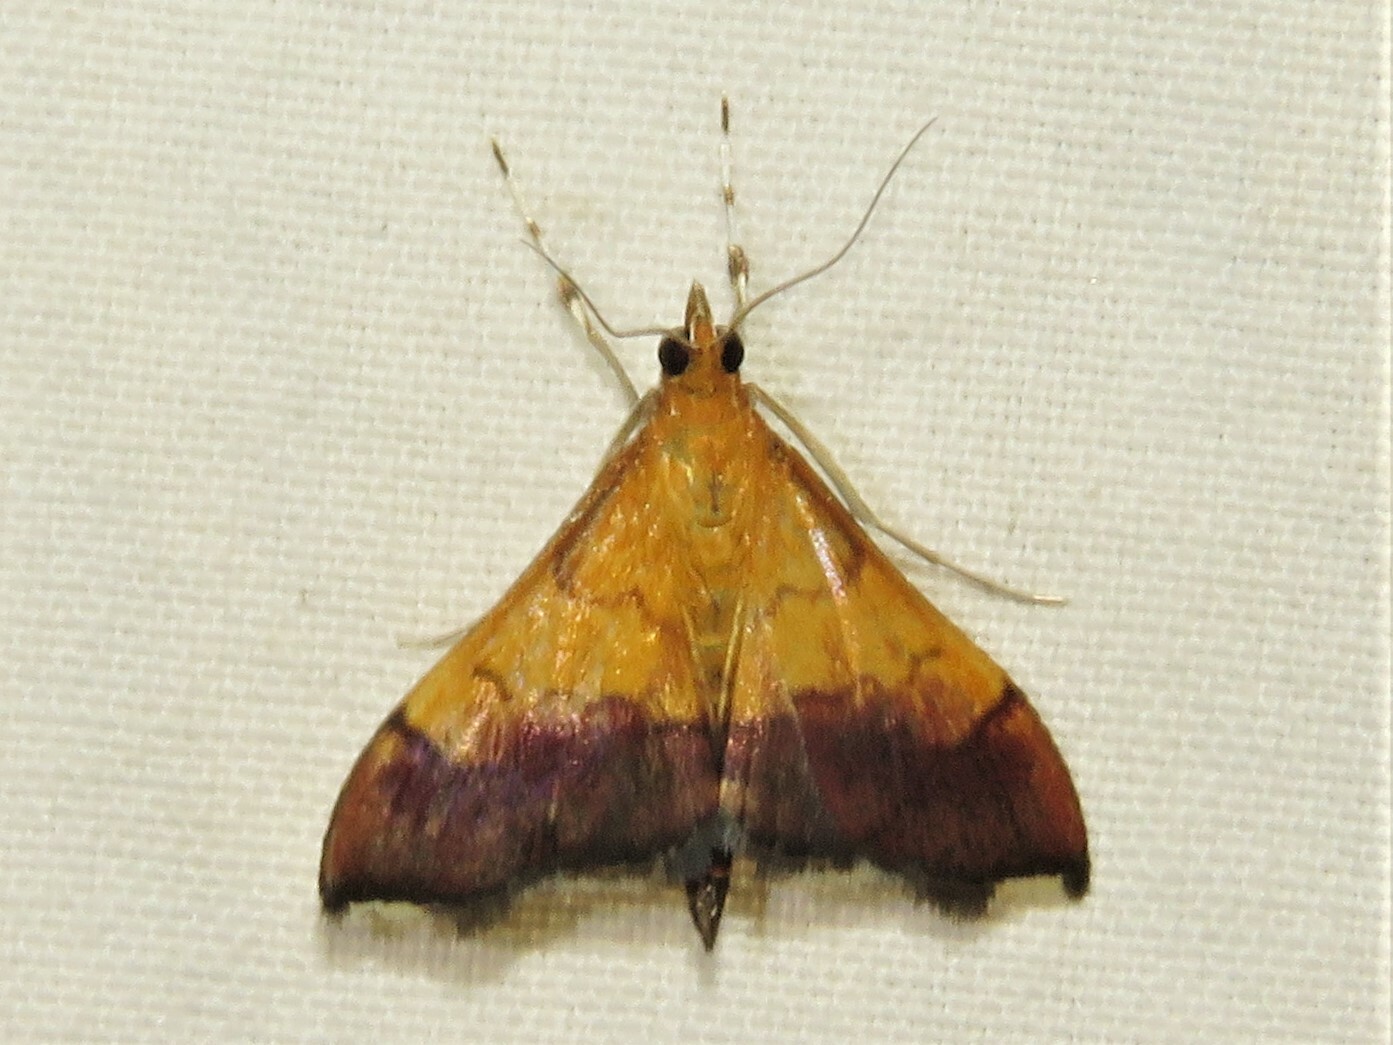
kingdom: Animalia
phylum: Arthropoda
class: Insecta
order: Lepidoptera
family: Crambidae
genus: Pyrausta
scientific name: Pyrausta bicoloralis
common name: Bicolored pyrausta moth
